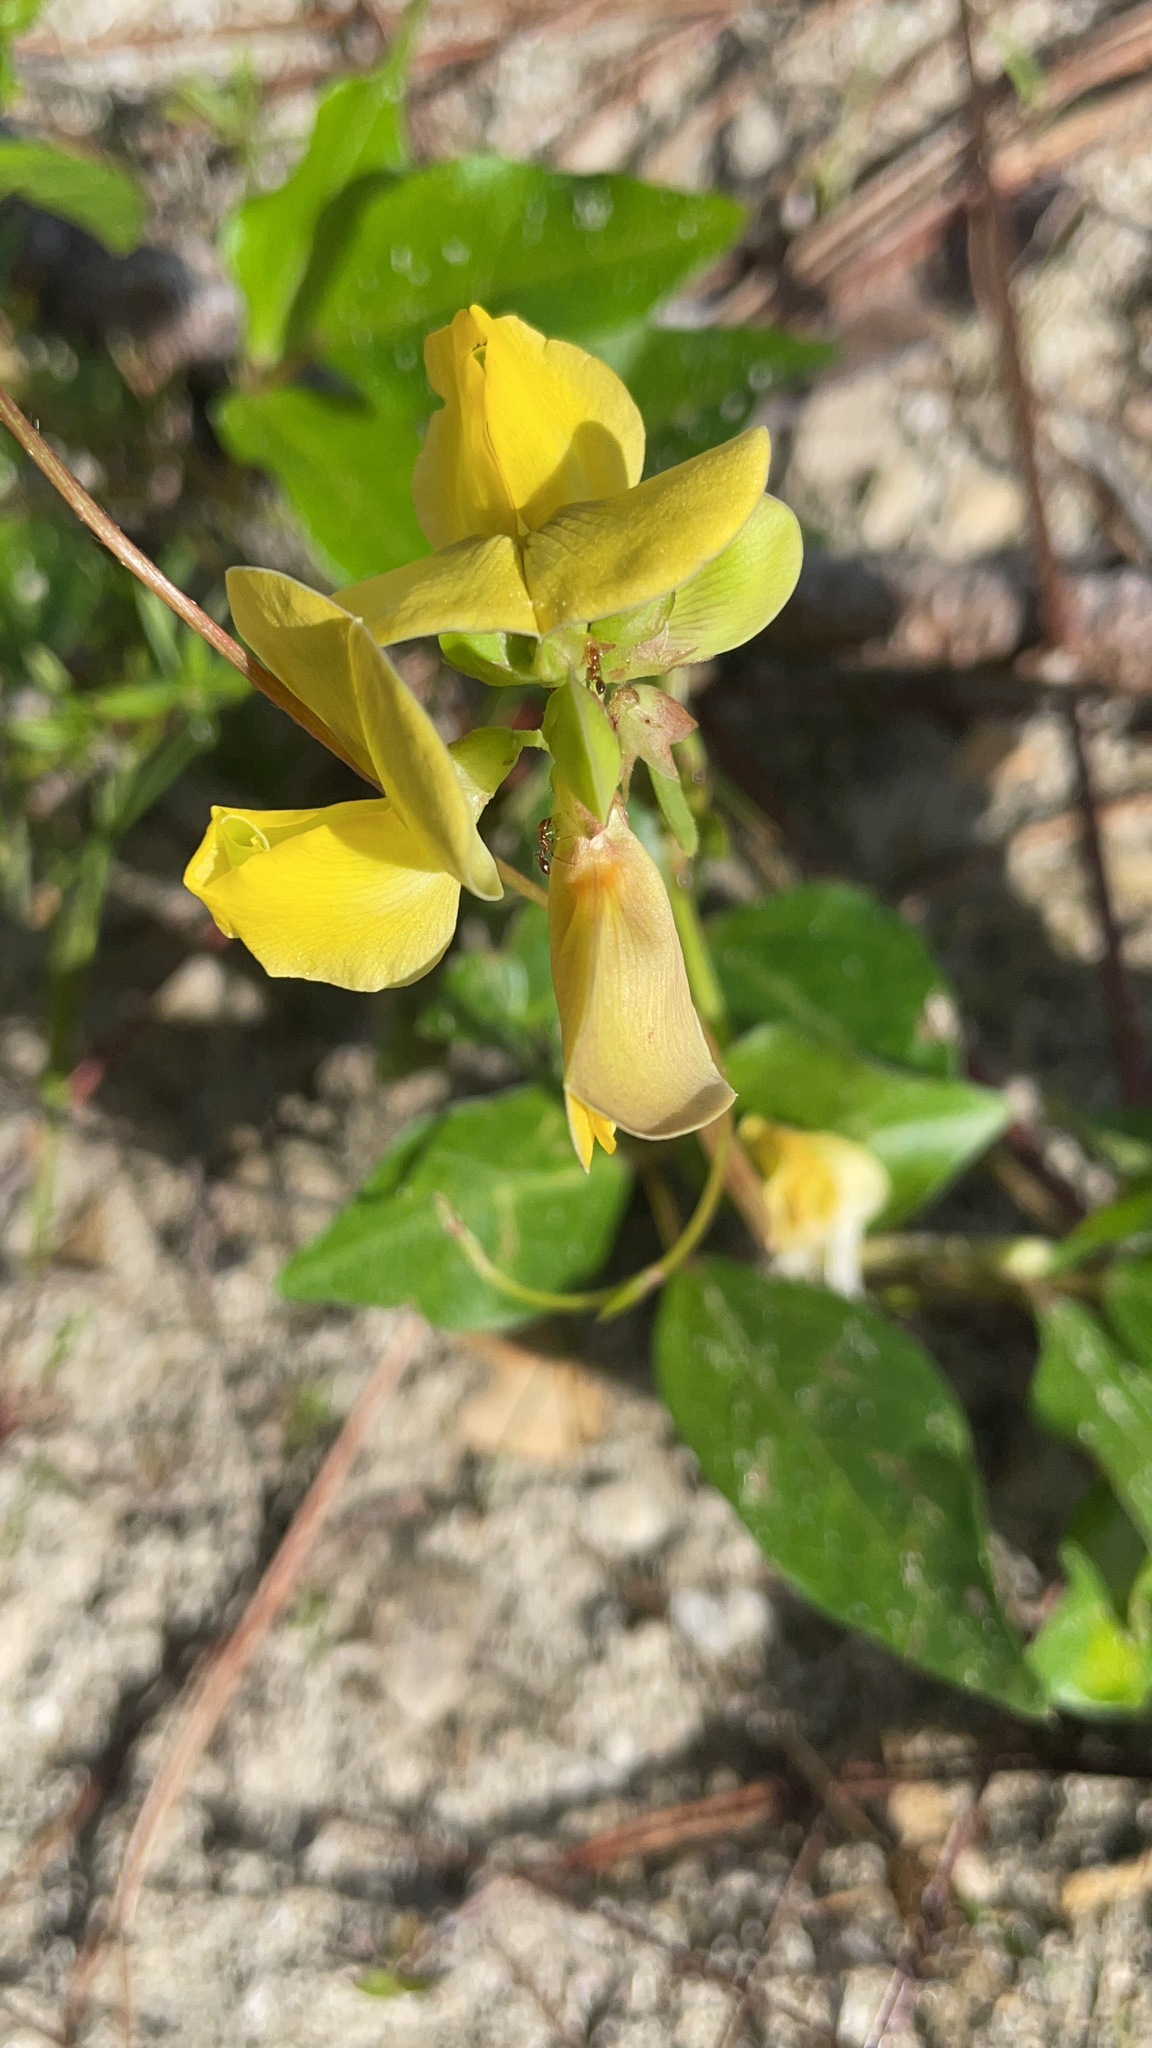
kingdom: Plantae
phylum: Tracheophyta
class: Magnoliopsida
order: Fabales
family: Fabaceae
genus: Vigna
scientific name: Vigna luteola
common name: Hairypod cowpea
